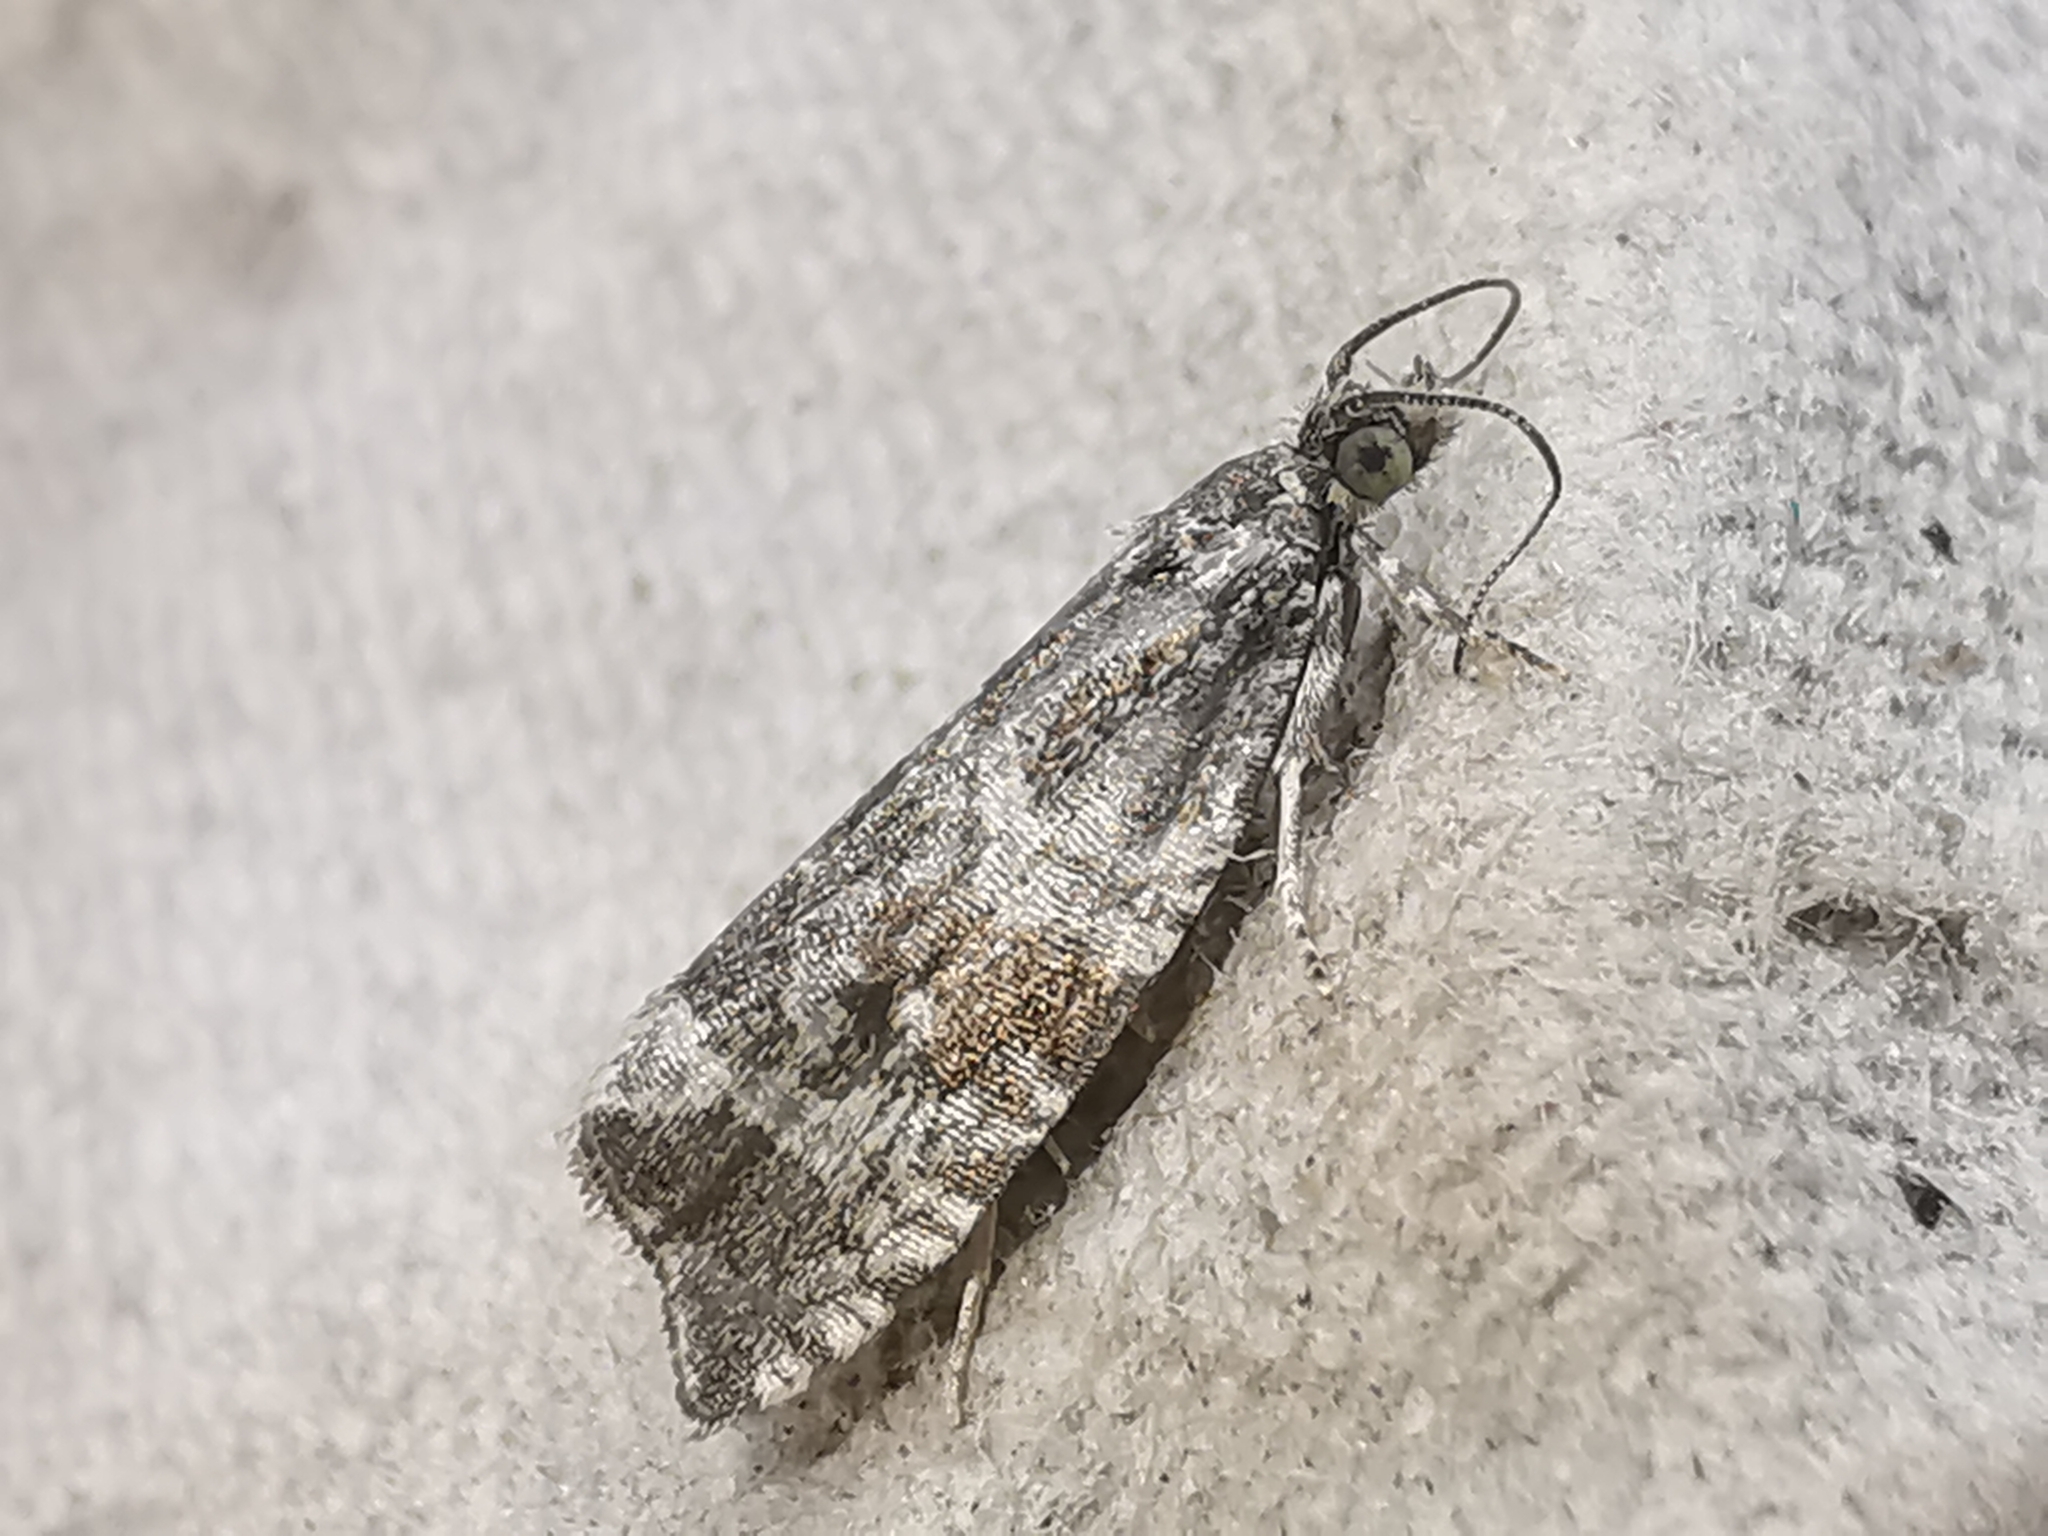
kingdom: Animalia
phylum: Arthropoda
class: Insecta
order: Lepidoptera
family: Tortricidae
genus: Syricoris
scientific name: Syricoris lacunana
